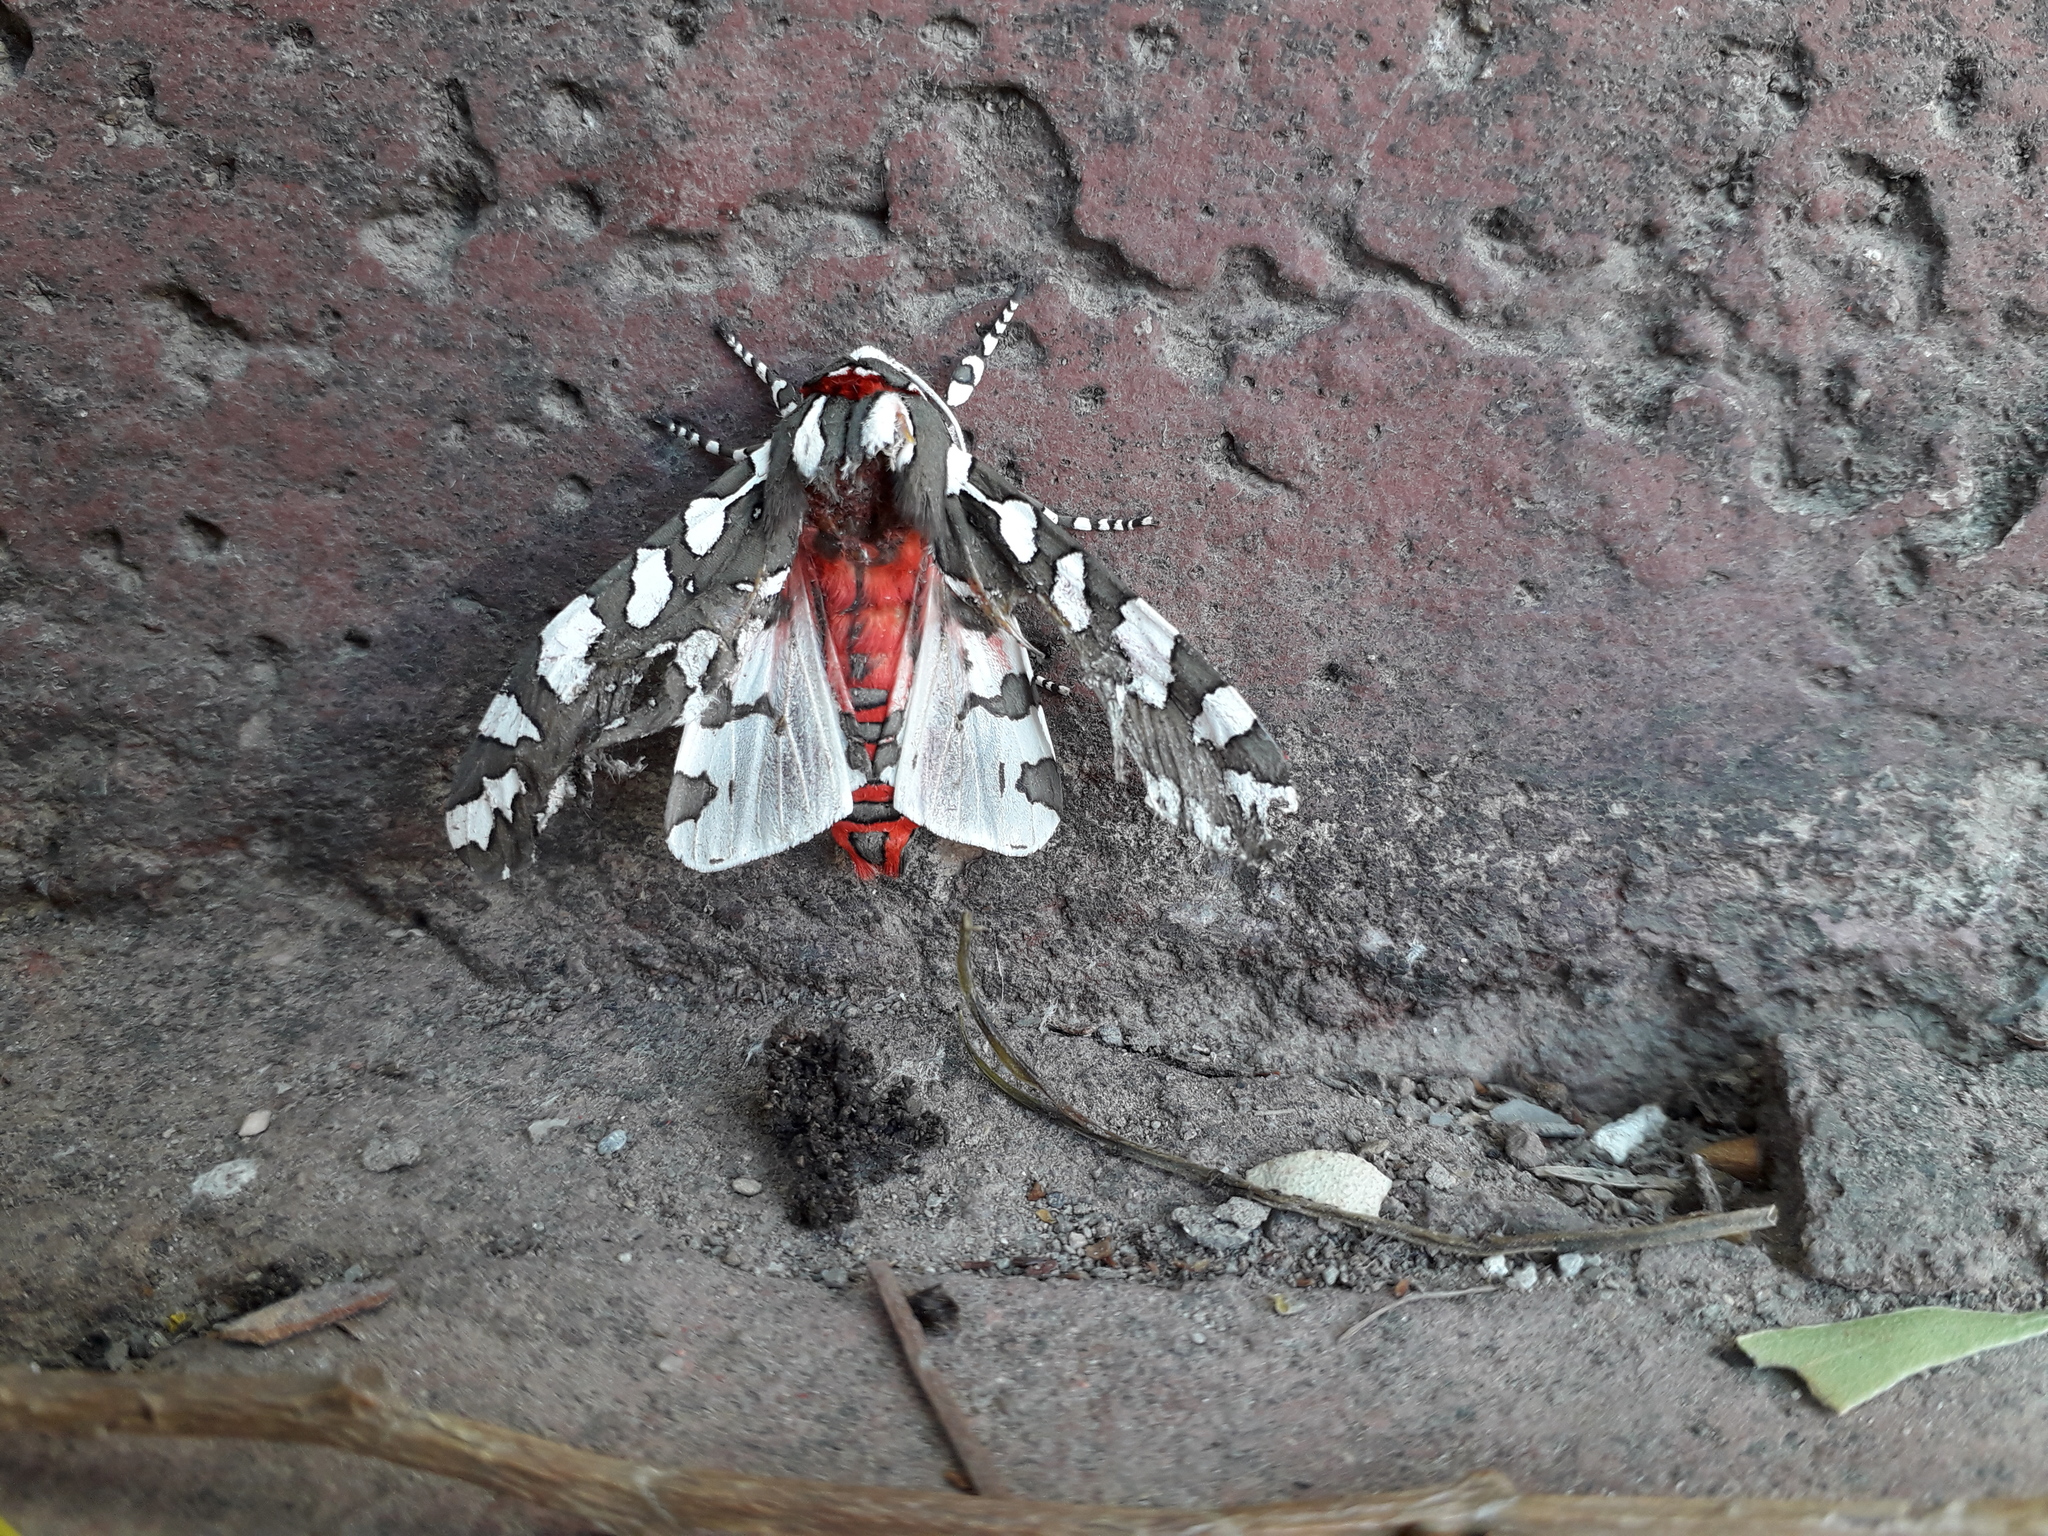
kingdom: Animalia
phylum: Arthropoda
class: Insecta
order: Lepidoptera
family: Erebidae
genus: Arachnis
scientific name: Arachnis dilecta
